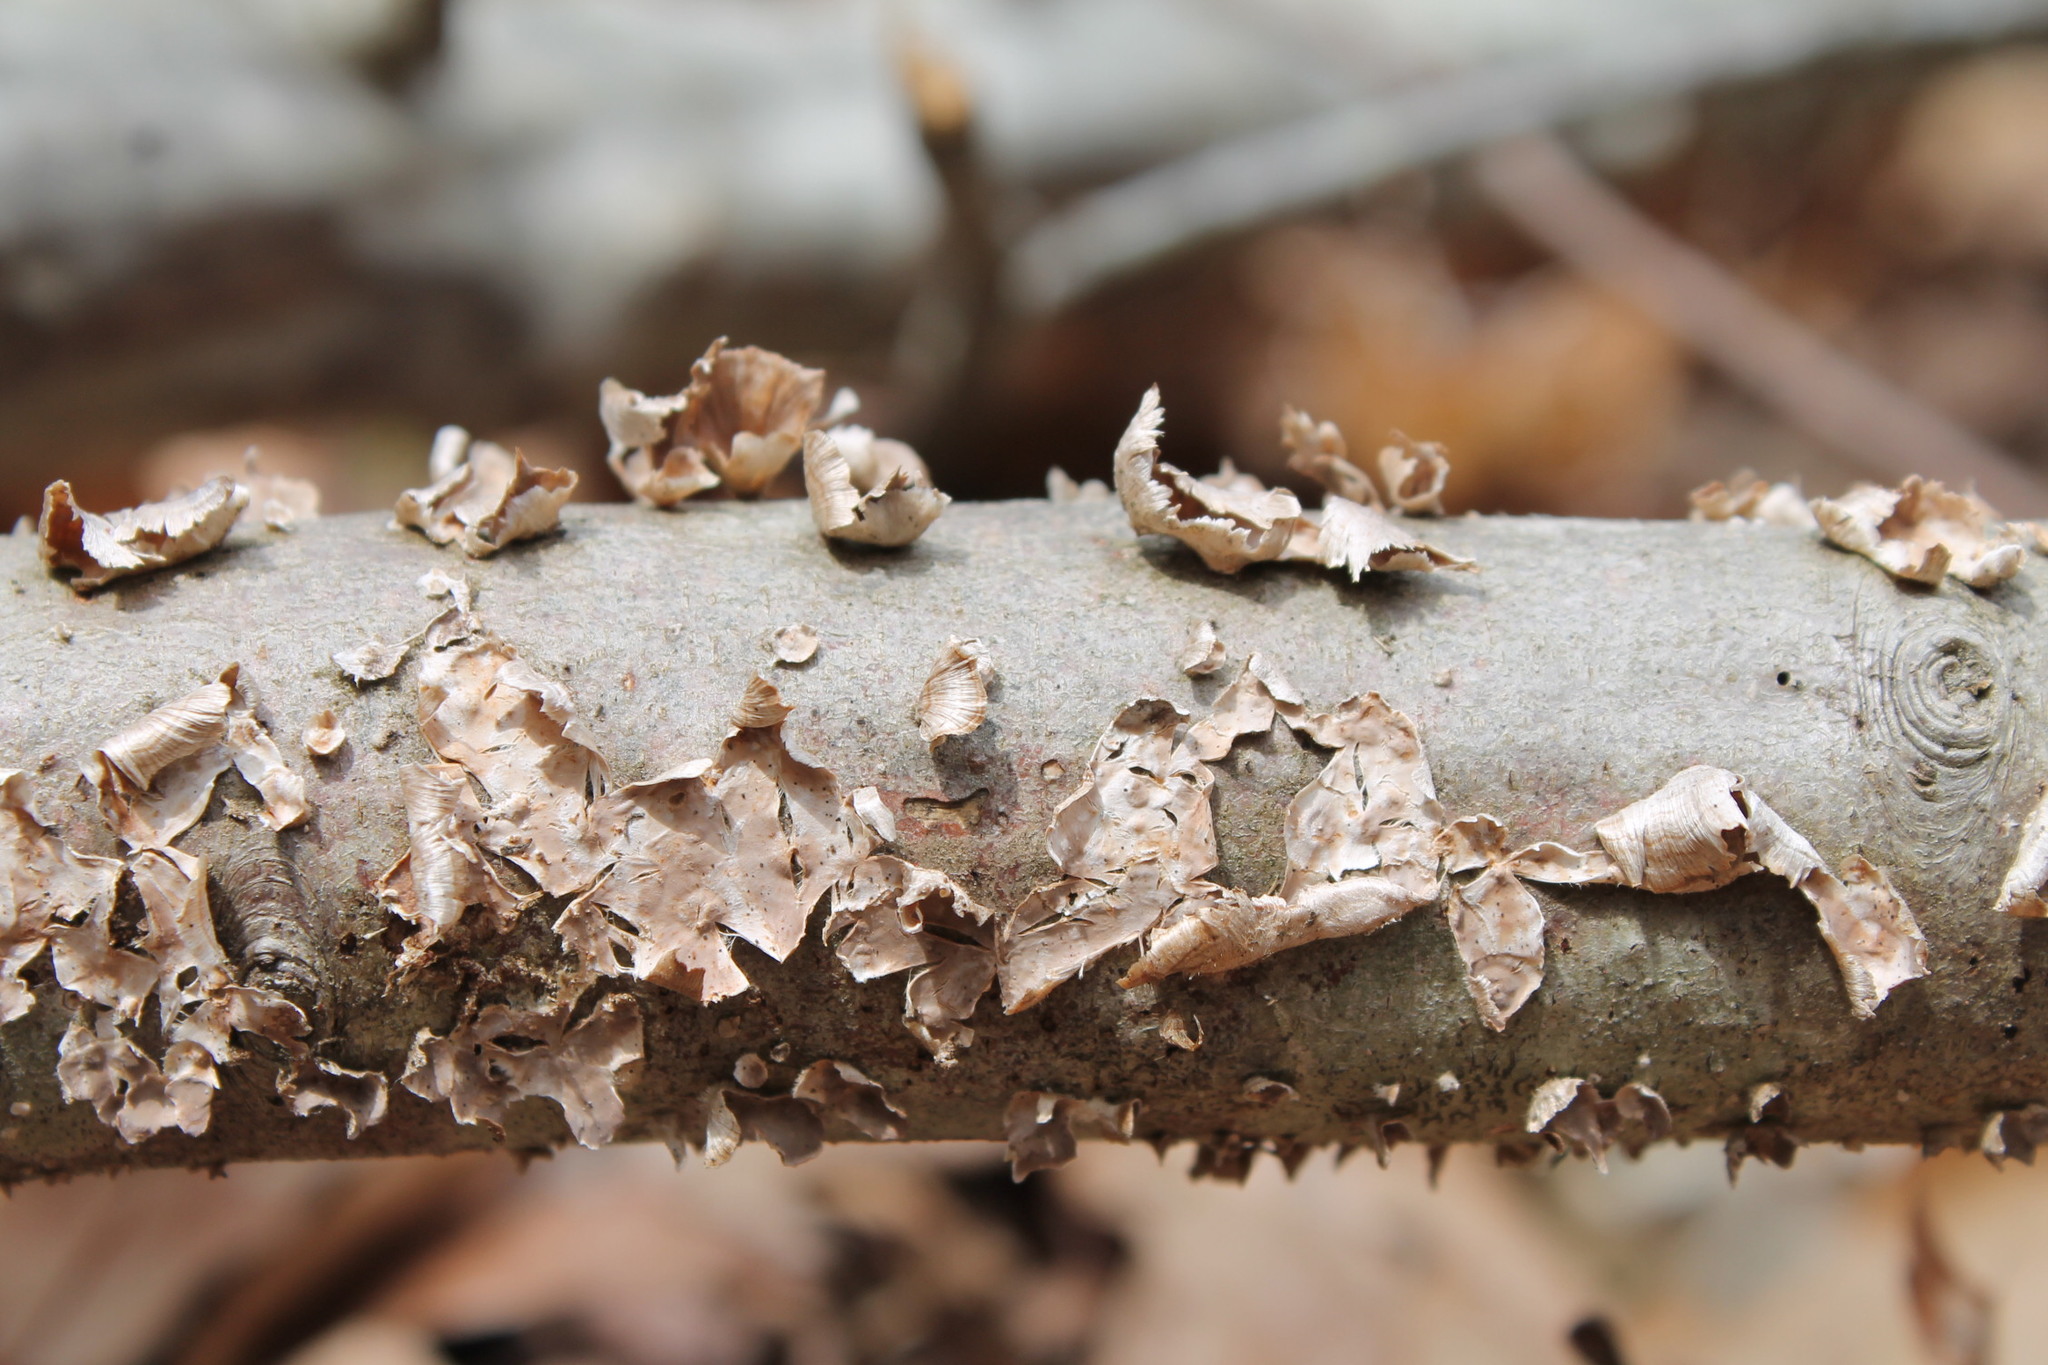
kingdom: Fungi
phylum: Basidiomycota
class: Agaricomycetes
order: Russulales
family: Stereaceae
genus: Stereum
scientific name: Stereum striatum
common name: Silky parchment
